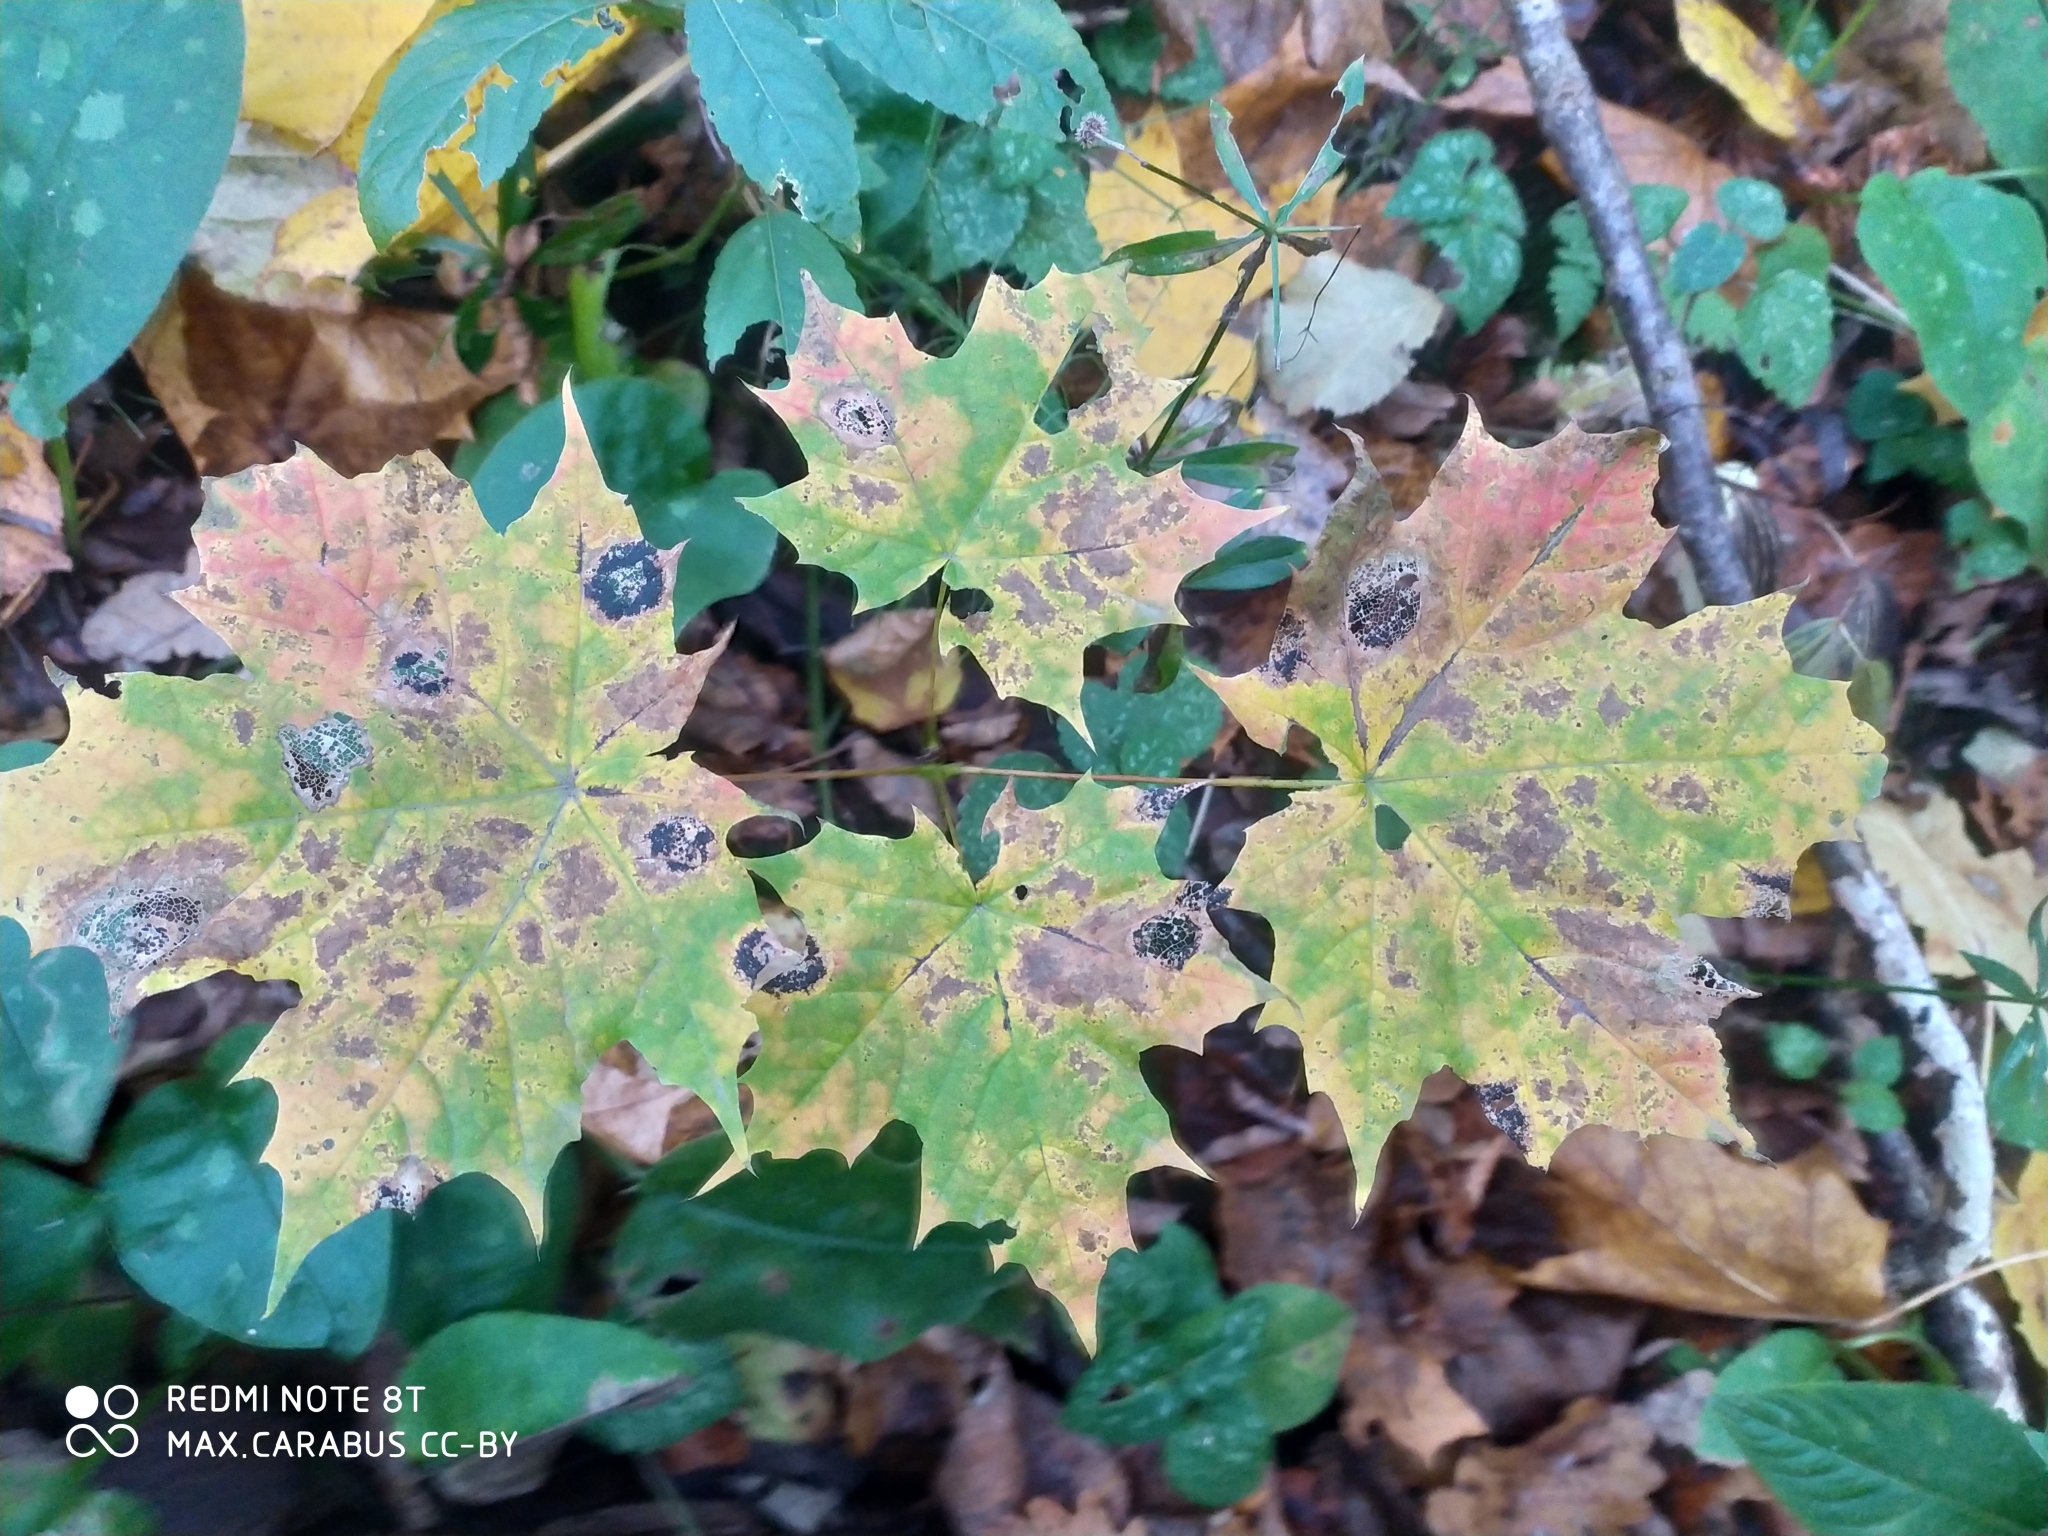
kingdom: Plantae
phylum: Tracheophyta
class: Magnoliopsida
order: Sapindales
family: Sapindaceae
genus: Acer
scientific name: Acer platanoides
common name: Norway maple
